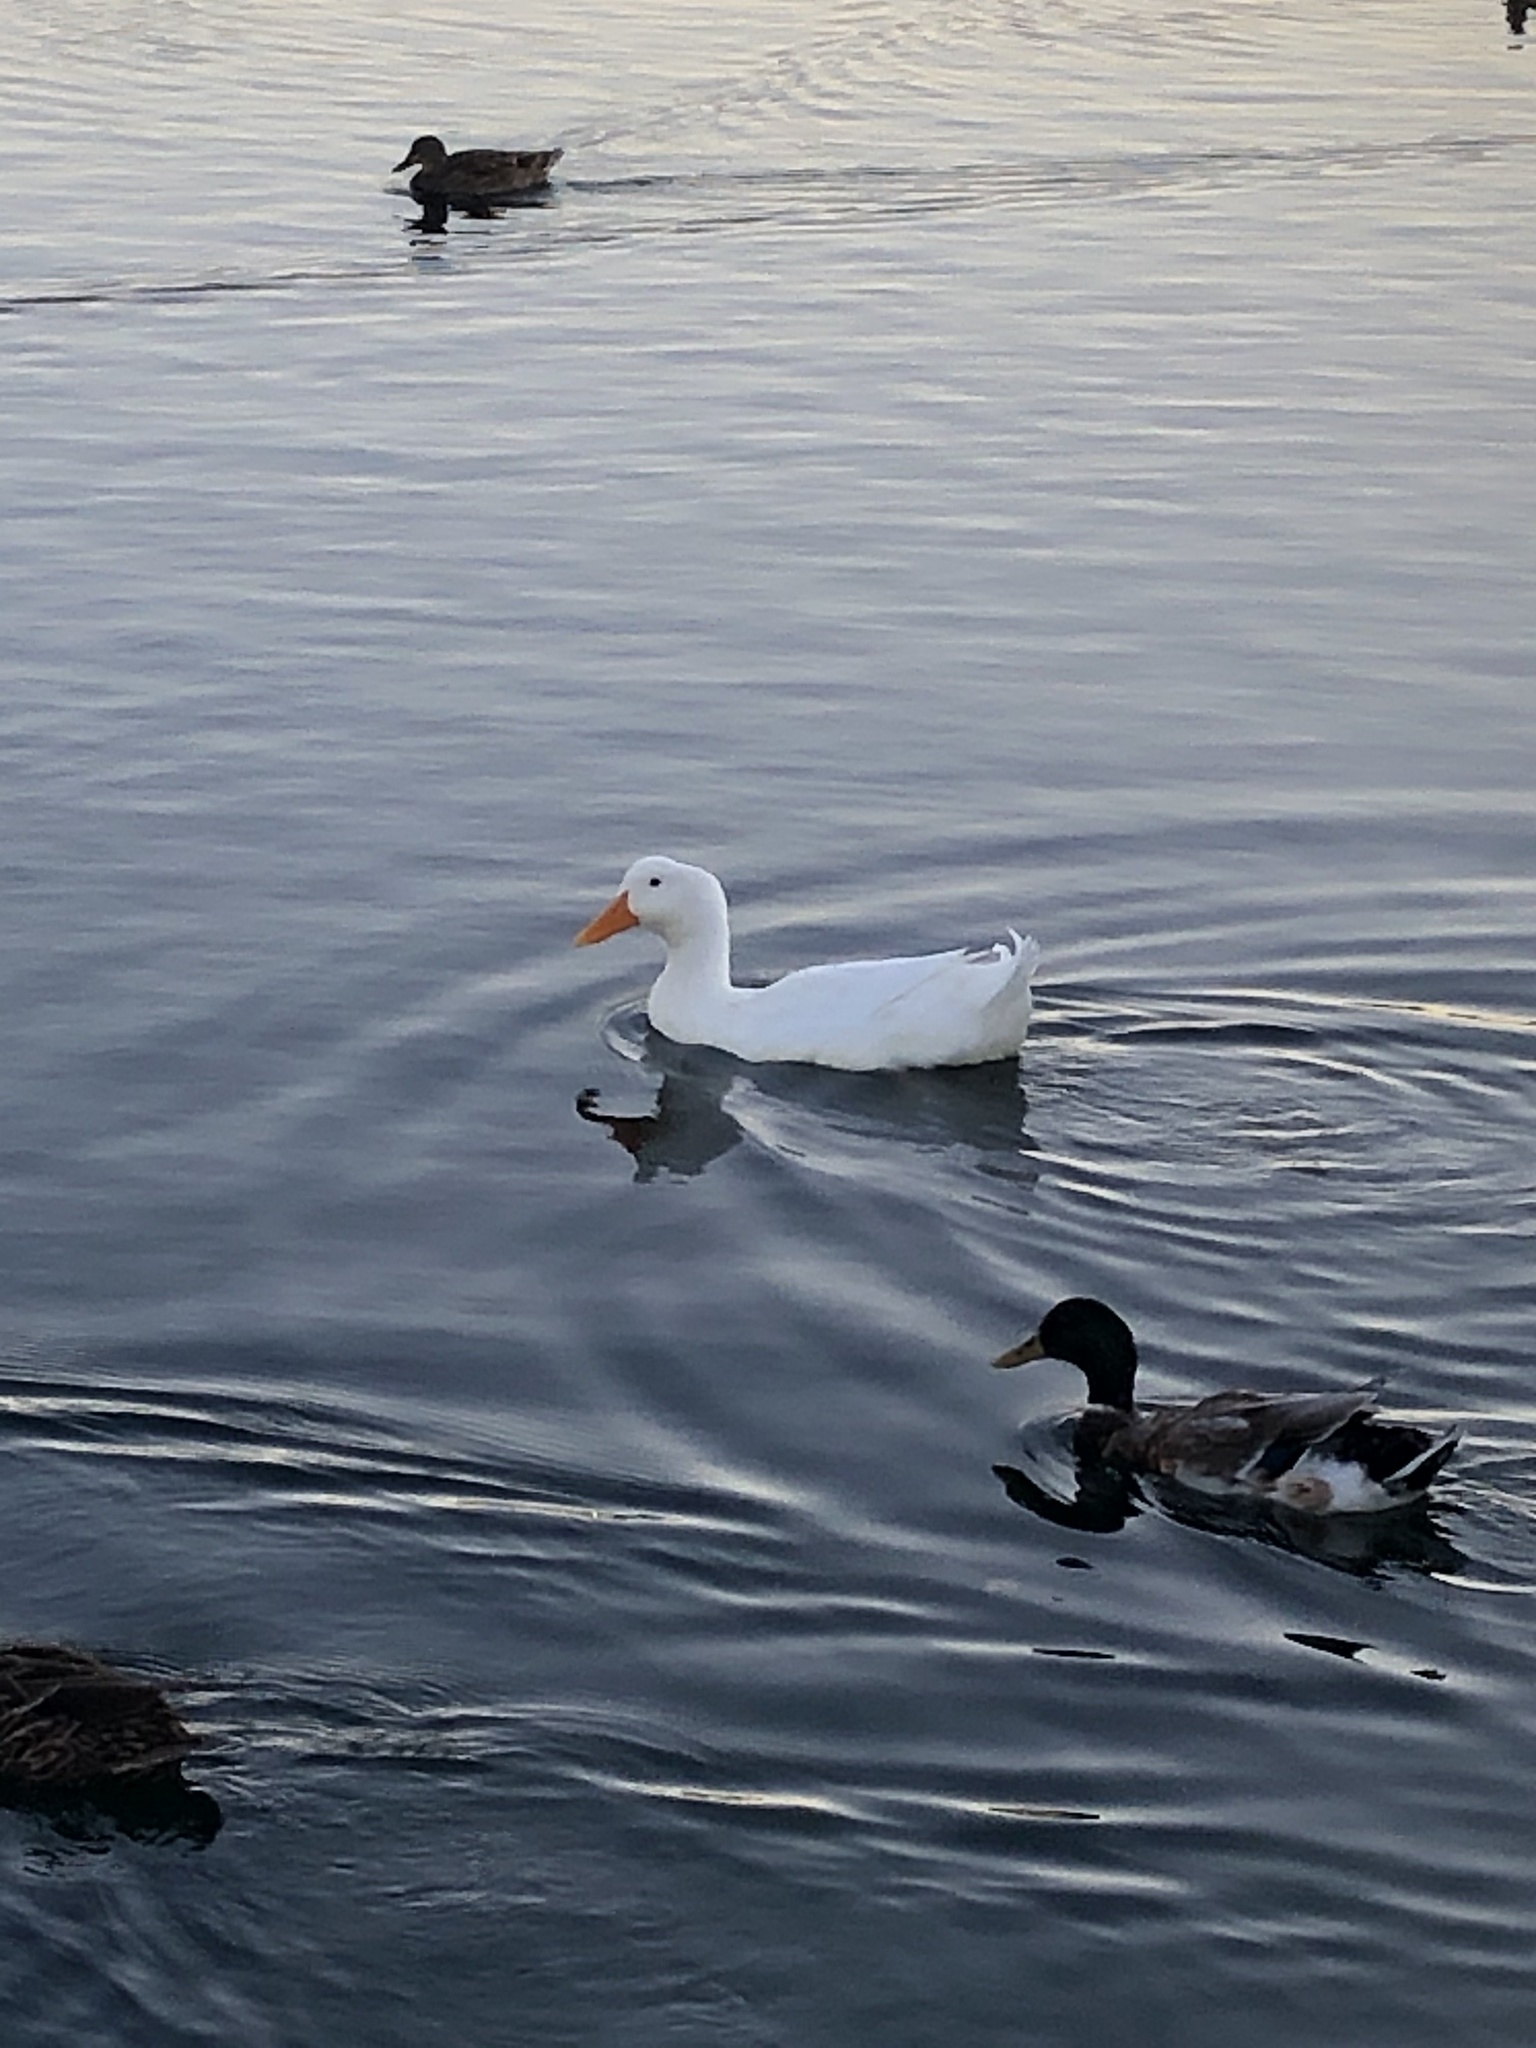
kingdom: Animalia
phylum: Chordata
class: Aves
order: Anseriformes
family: Anatidae
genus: Anas
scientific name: Anas platyrhynchos
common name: Mallard
